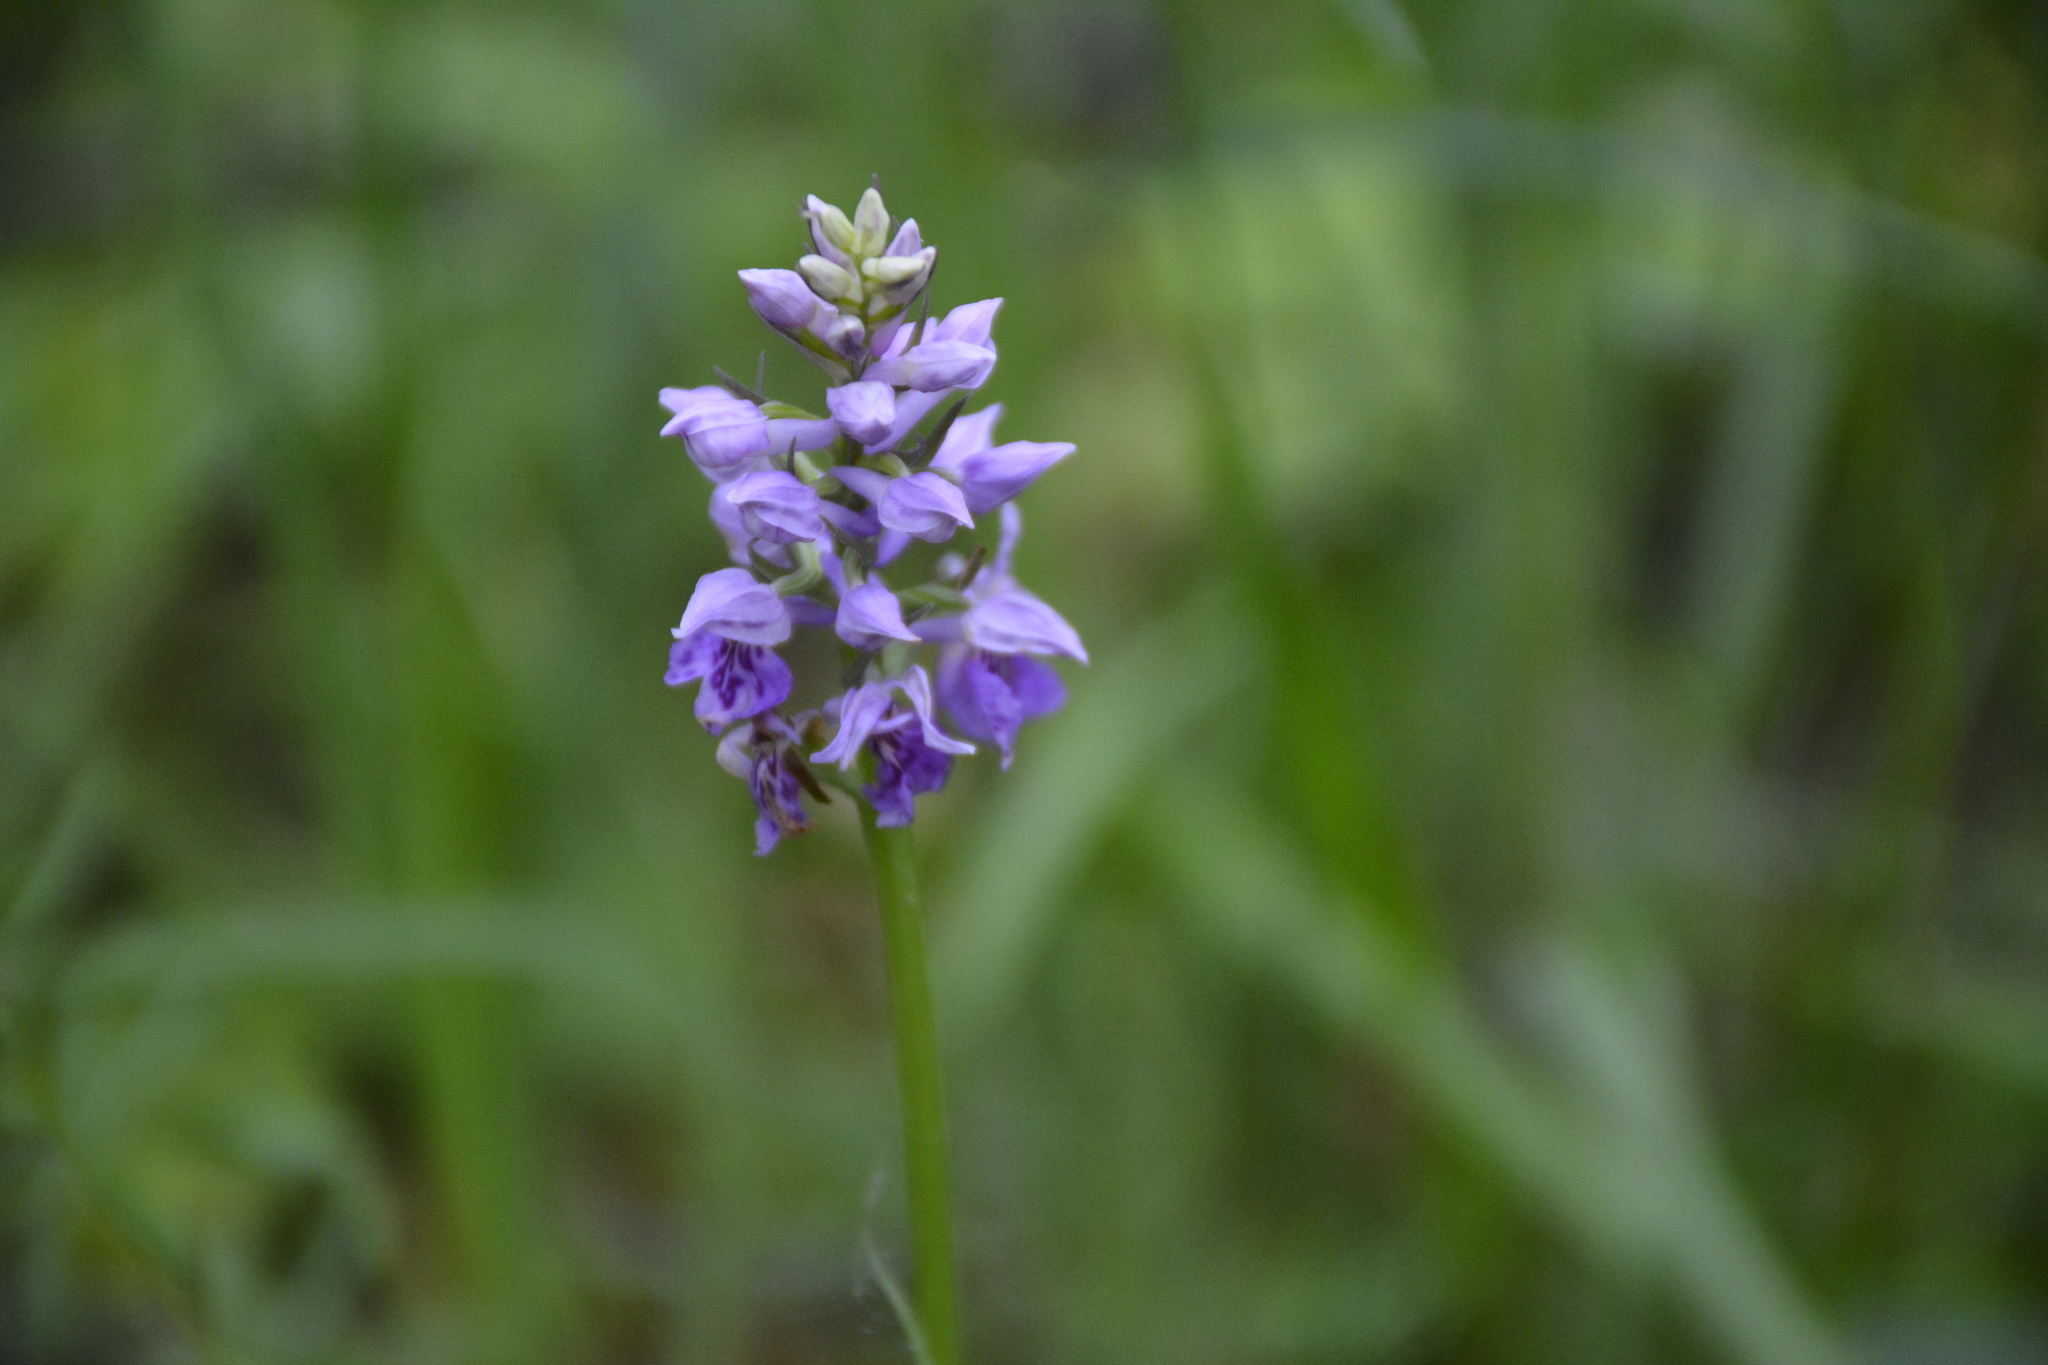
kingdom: Plantae
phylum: Tracheophyta
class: Liliopsida
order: Asparagales
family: Orchidaceae
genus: Dactylorhiza
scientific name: Dactylorhiza maculata
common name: Heath spotted-orchid
